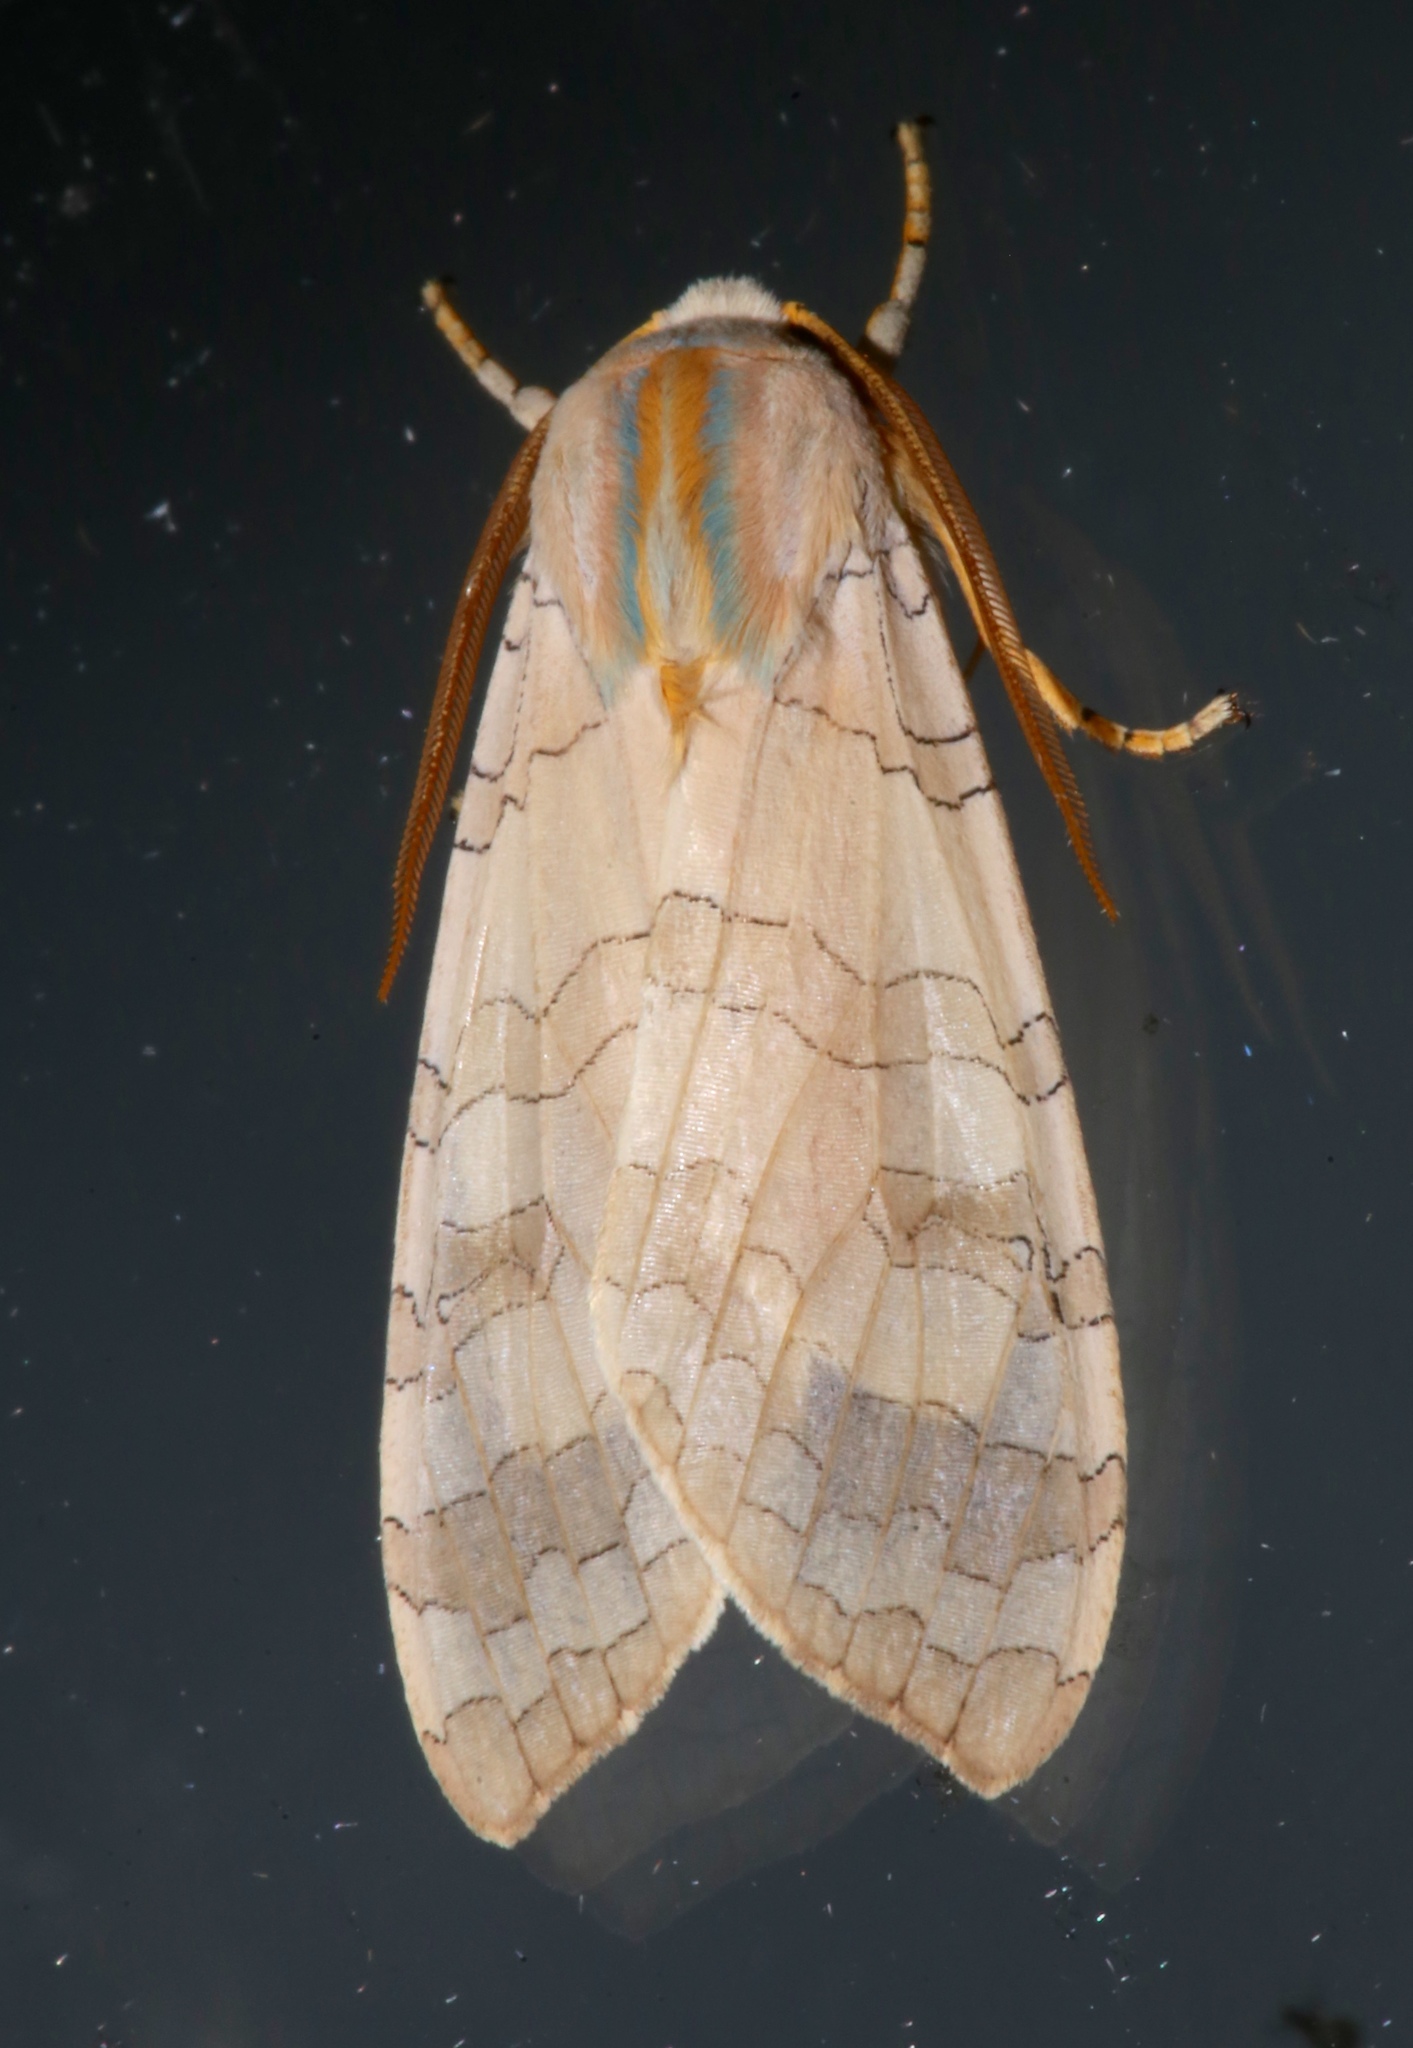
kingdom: Animalia
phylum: Arthropoda
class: Insecta
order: Lepidoptera
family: Erebidae
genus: Halysidota
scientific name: Halysidota
